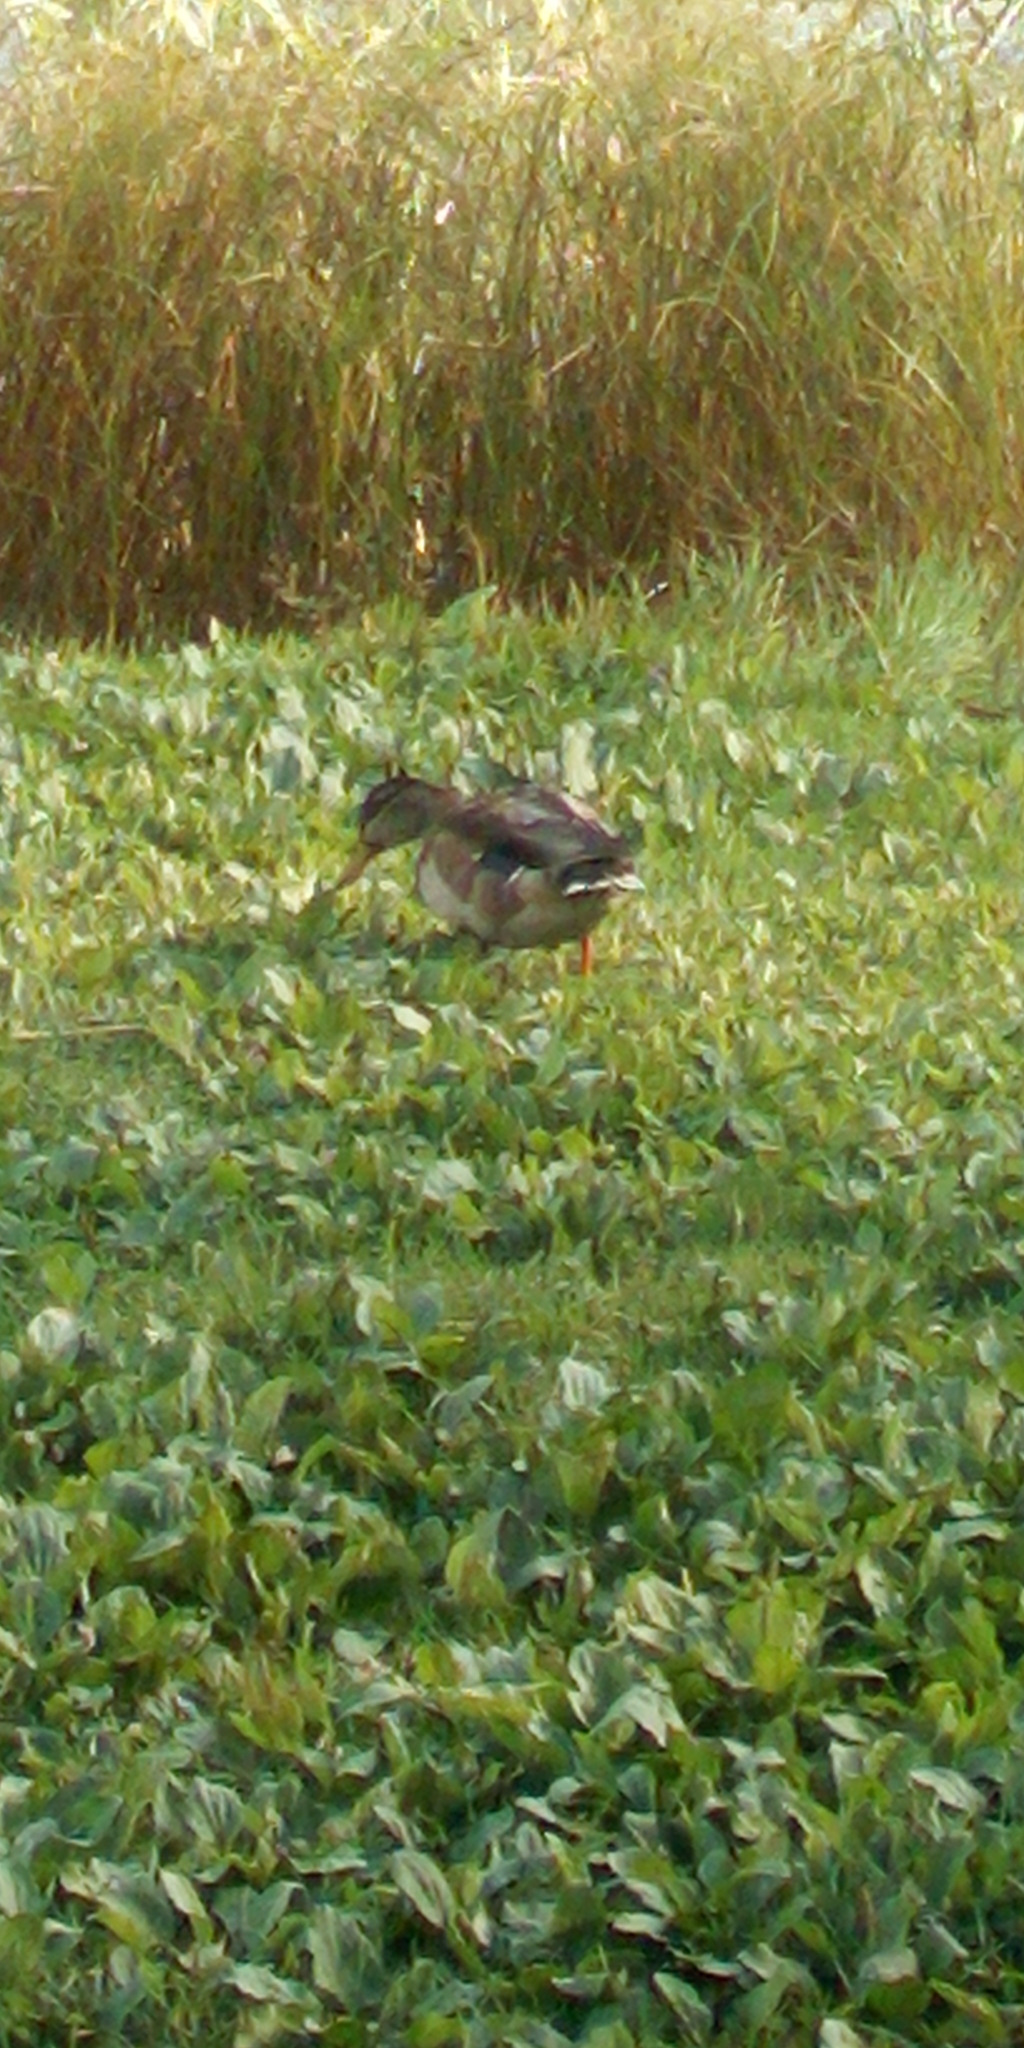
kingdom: Animalia
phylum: Chordata
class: Aves
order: Anseriformes
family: Anatidae
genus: Anas
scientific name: Anas platyrhynchos
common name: Mallard
